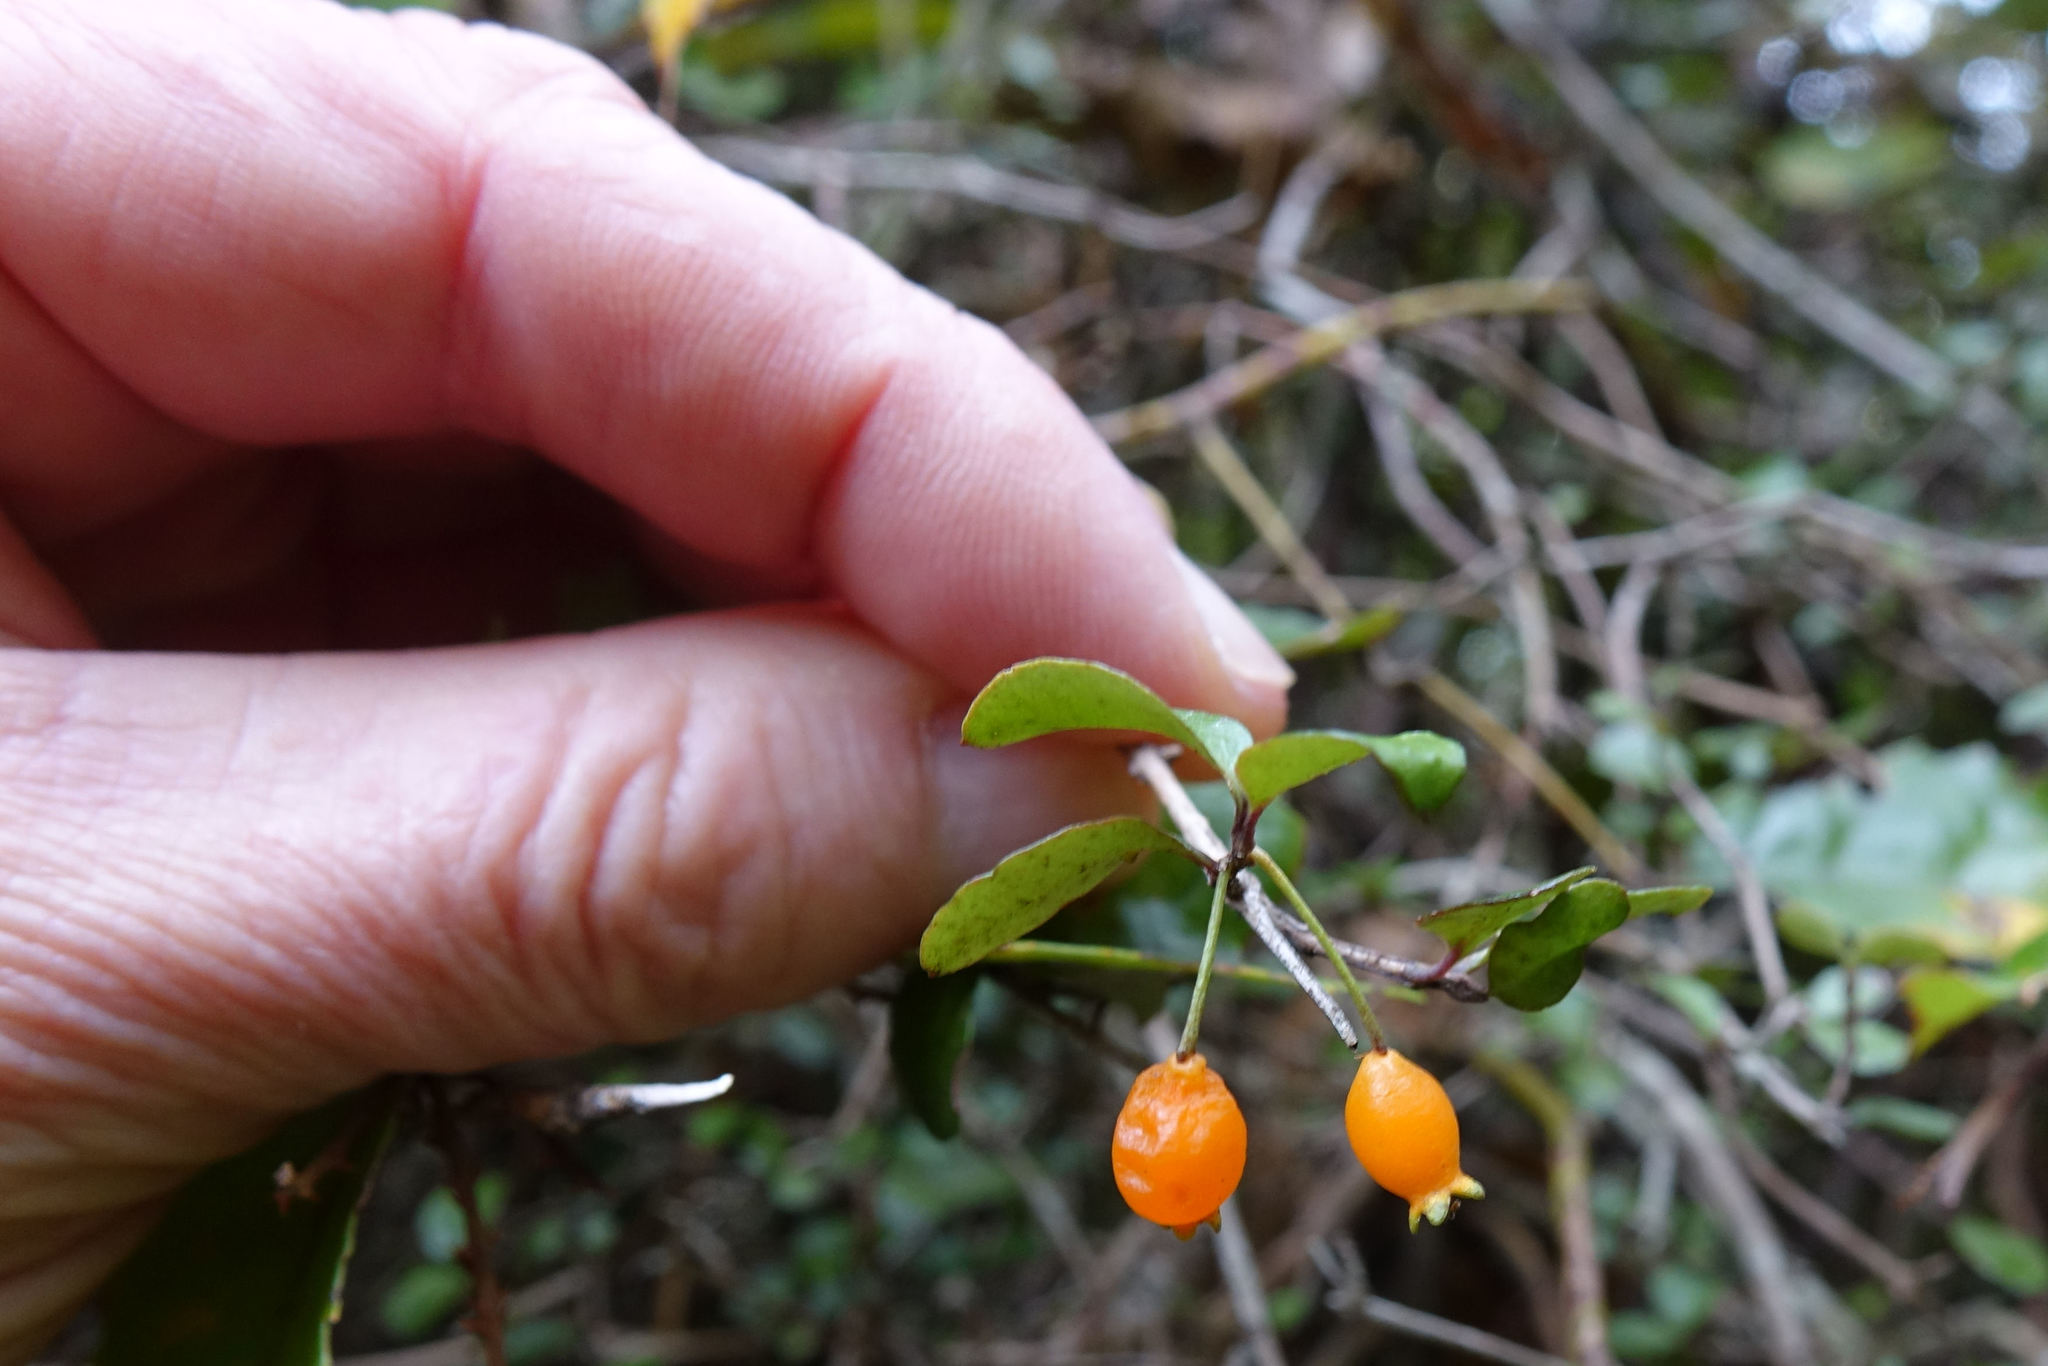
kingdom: Plantae
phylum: Tracheophyta
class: Magnoliopsida
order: Myrtales
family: Myrtaceae
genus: Neomyrtus
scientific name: Neomyrtus pedunculata
